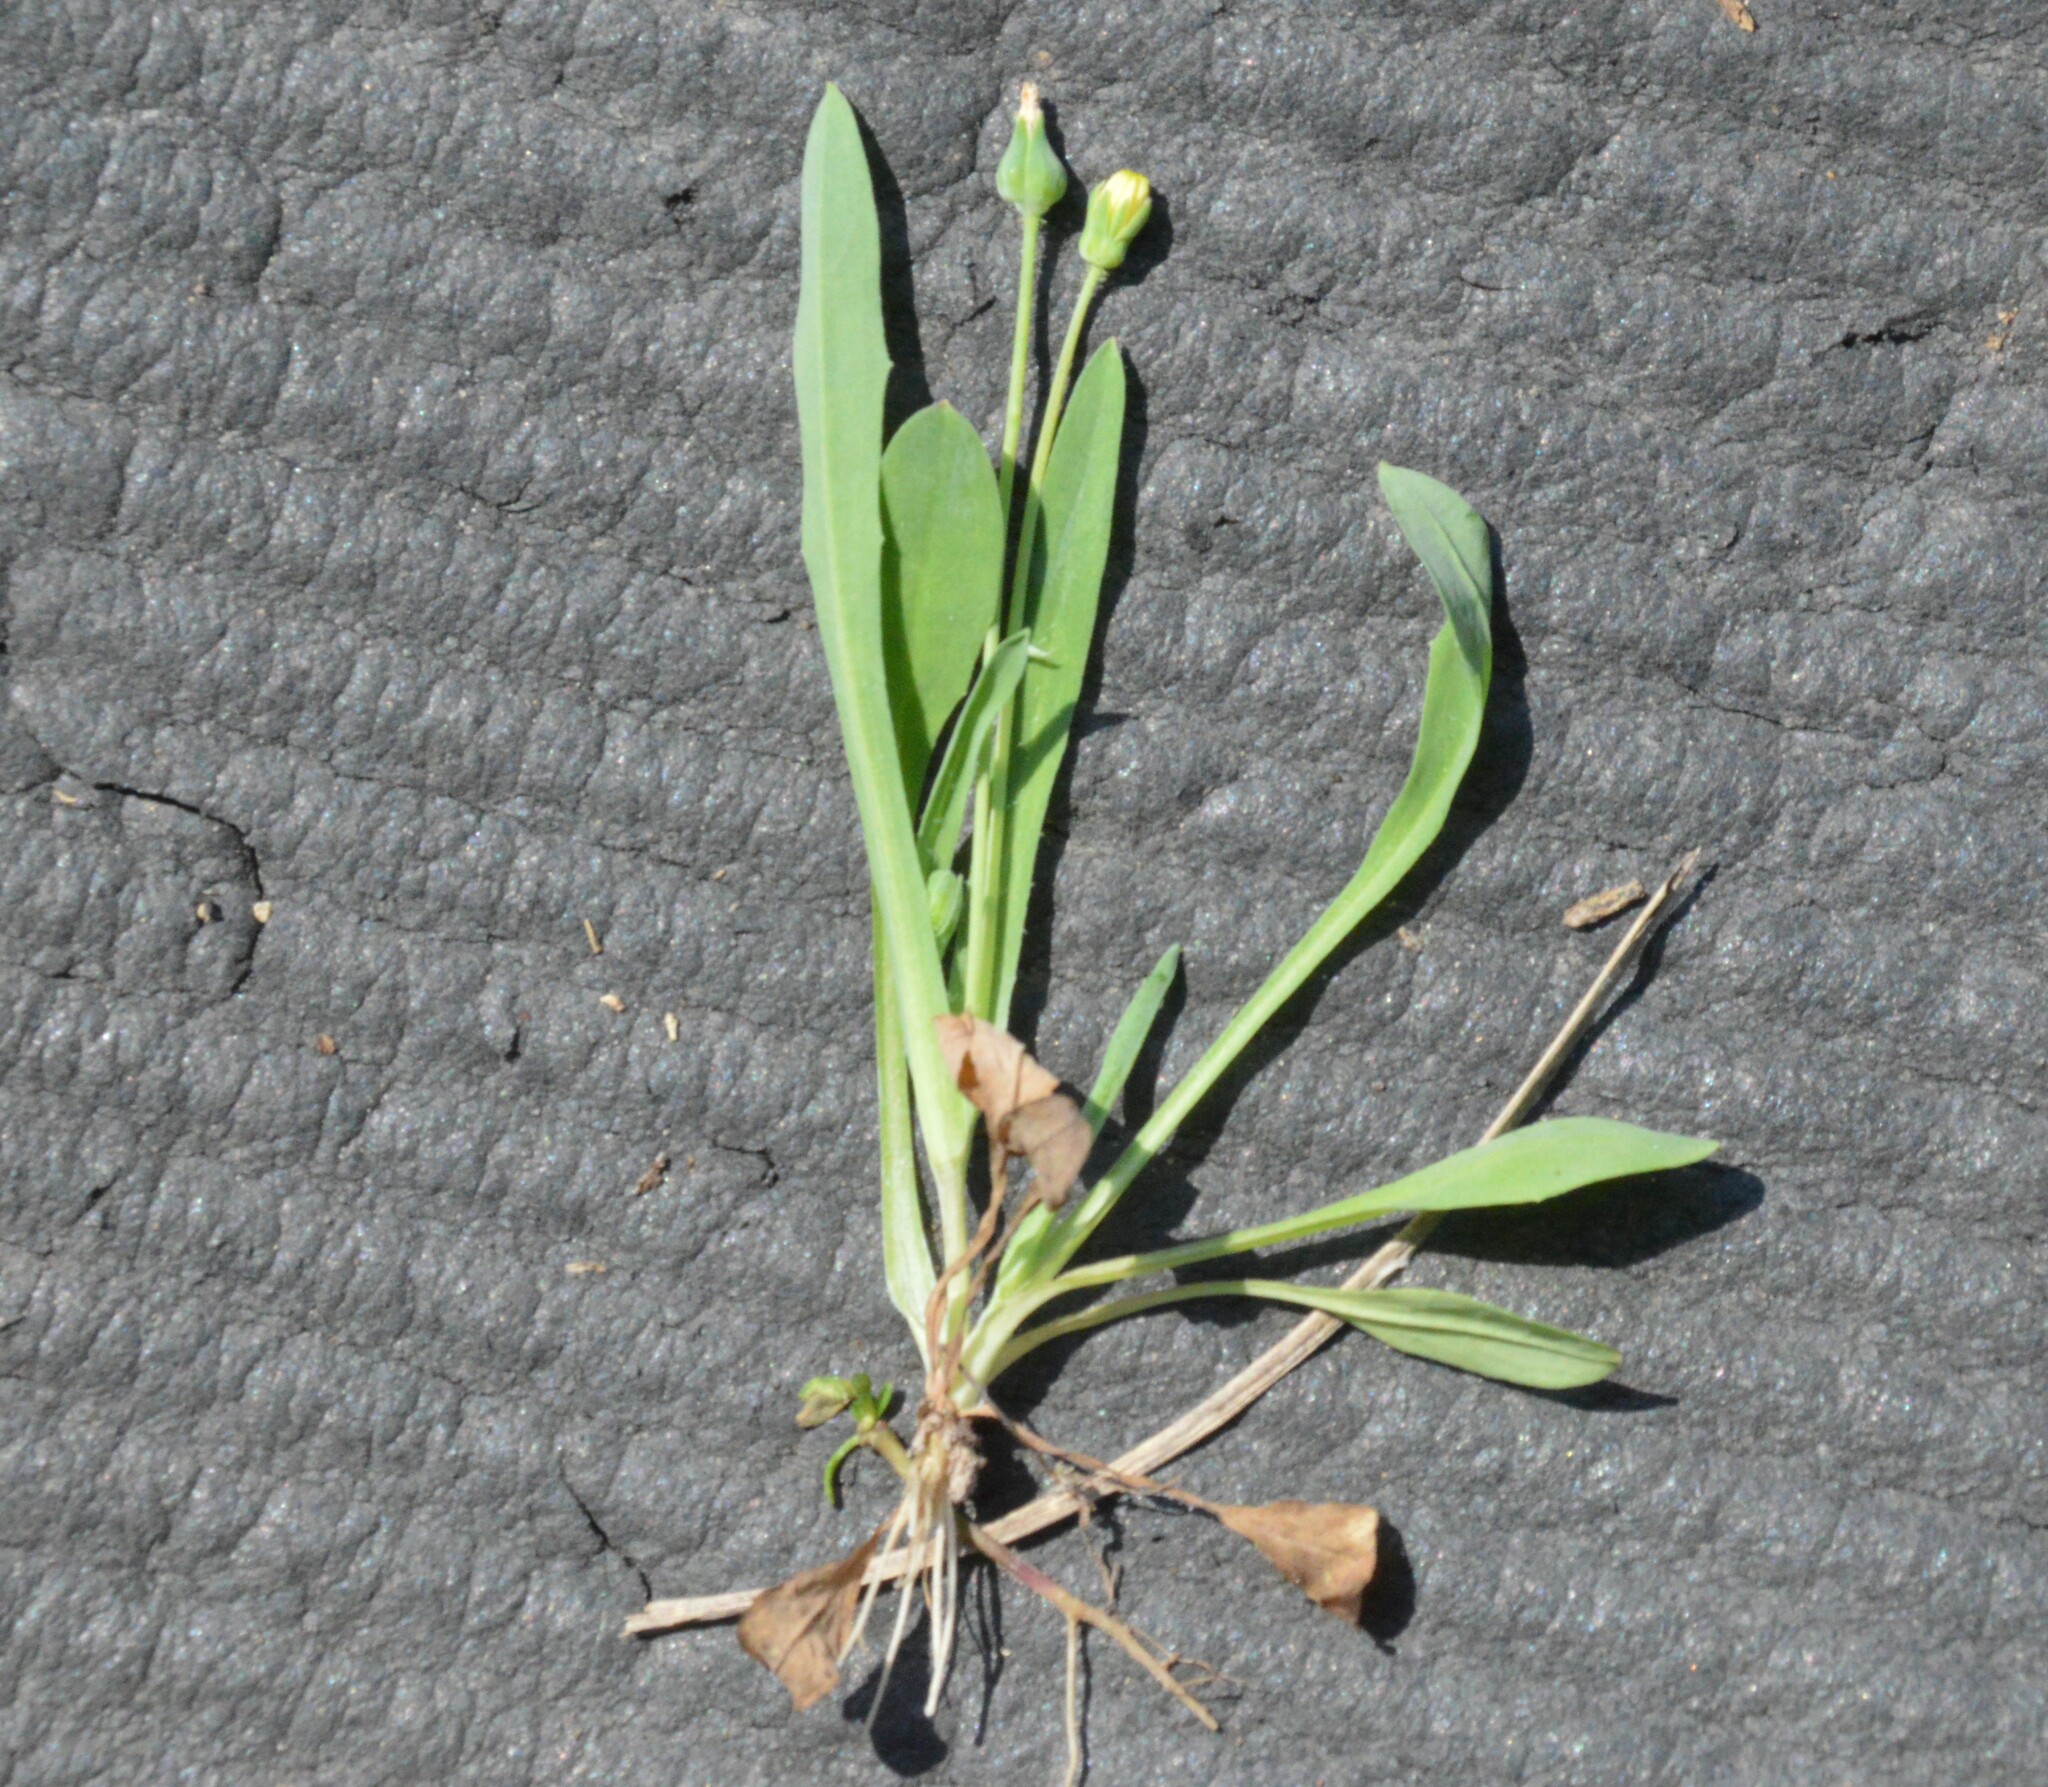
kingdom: Plantae
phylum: Tracheophyta
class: Magnoliopsida
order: Asterales
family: Asteraceae
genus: Krigia
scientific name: Krigia cespitosa
